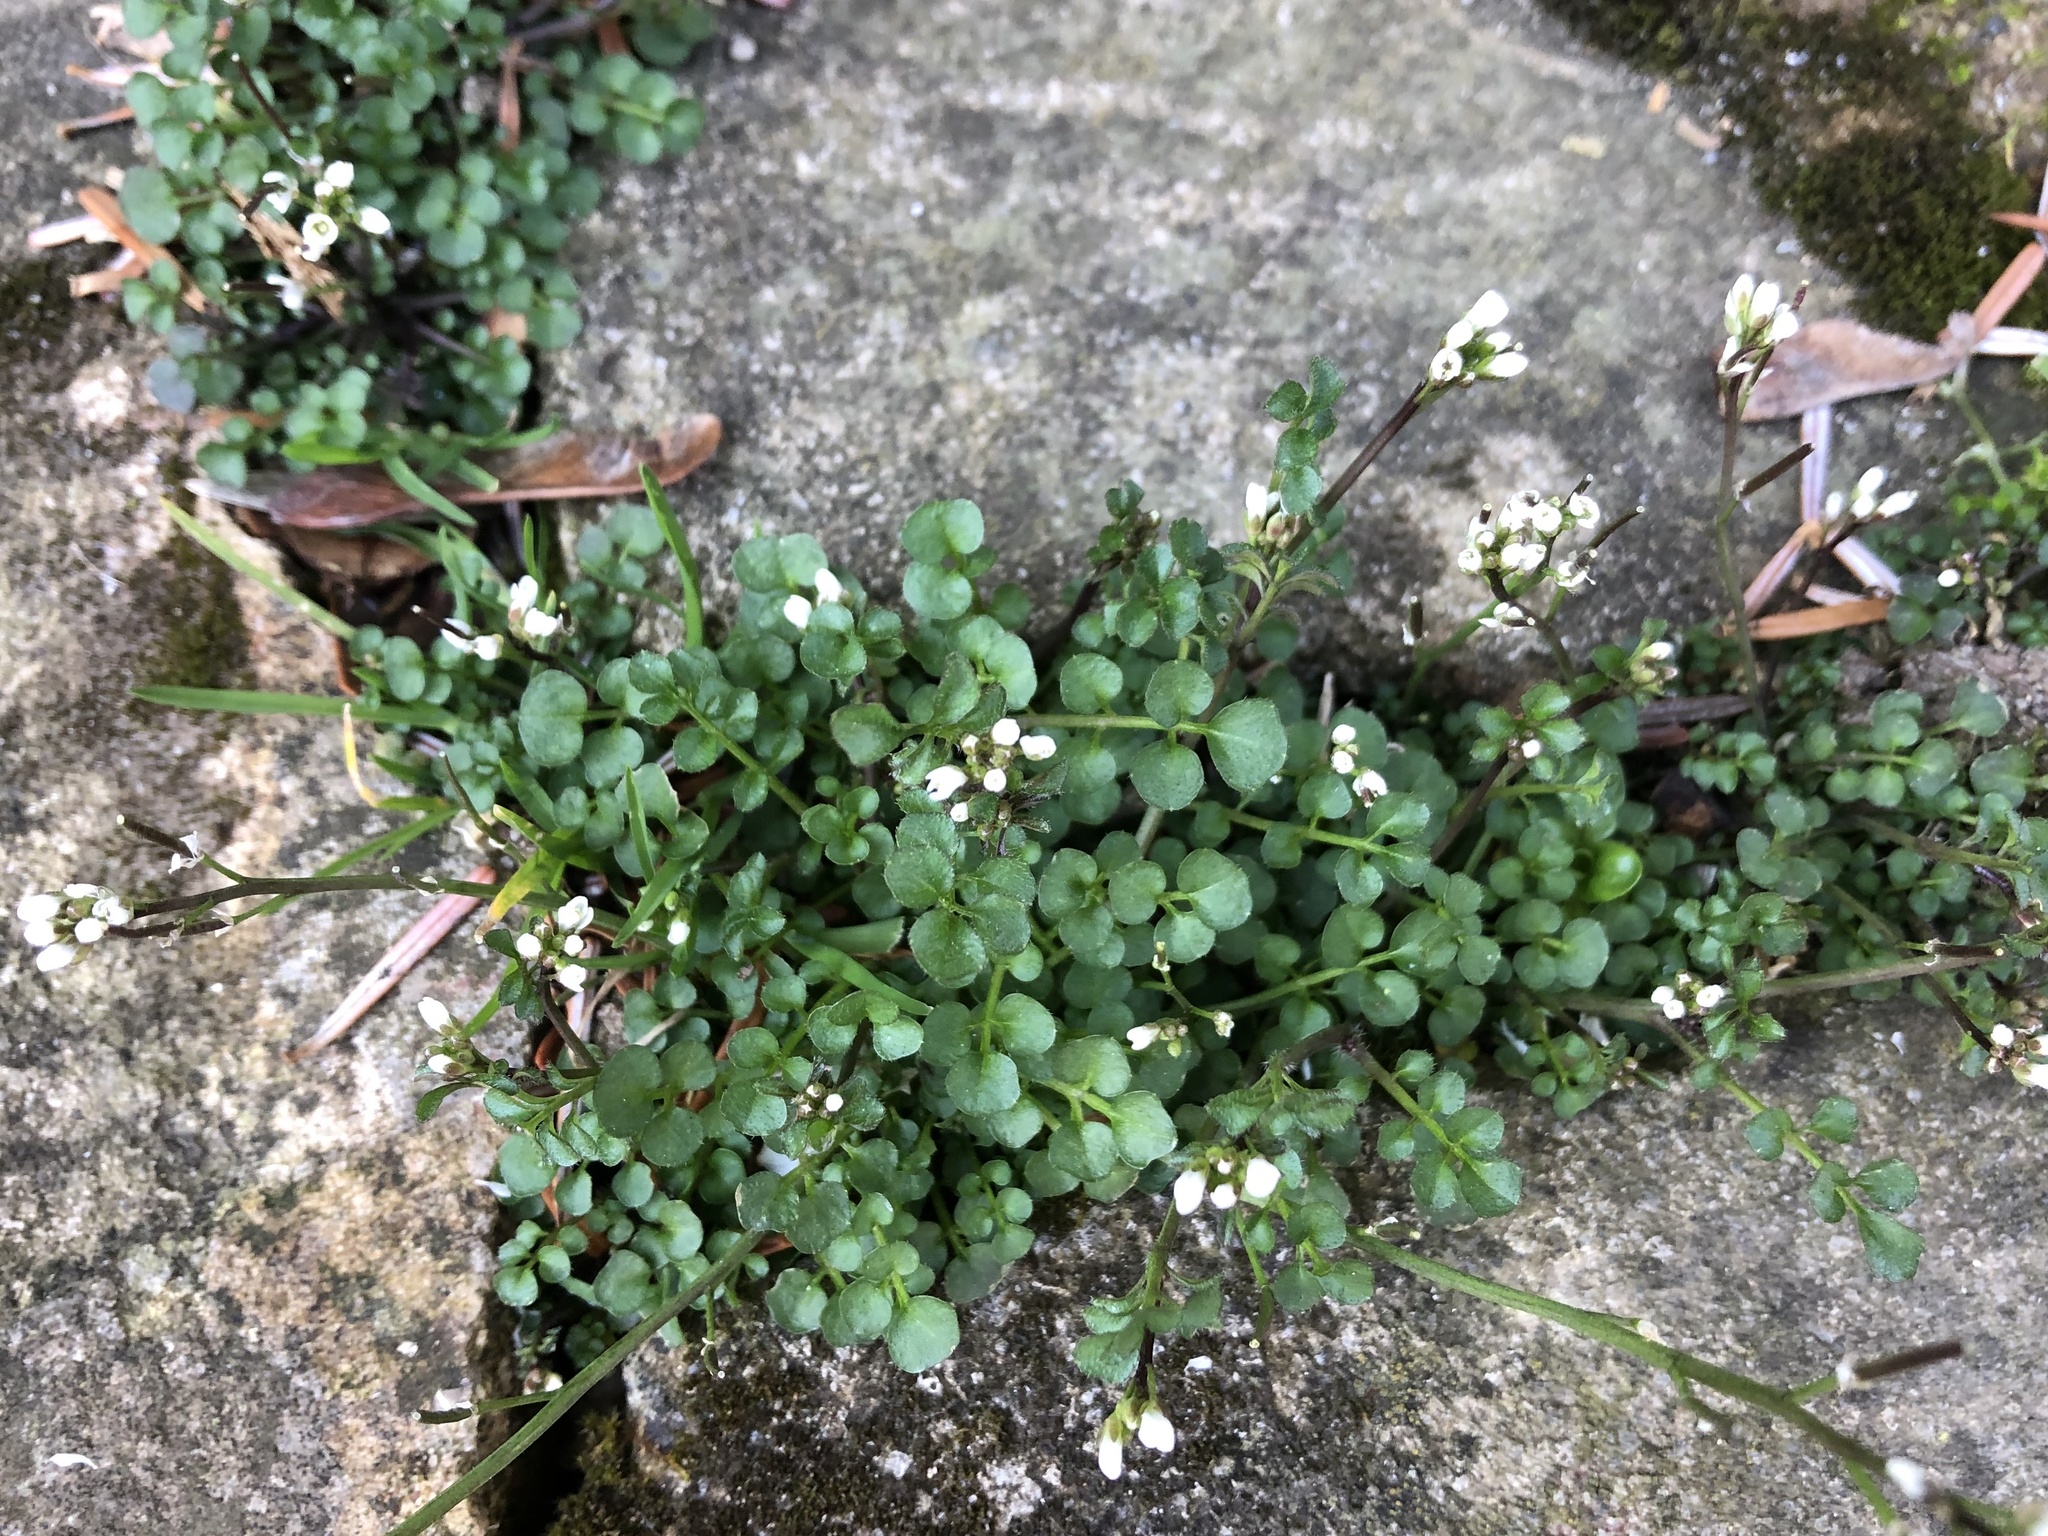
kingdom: Plantae
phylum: Tracheophyta
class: Magnoliopsida
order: Brassicales
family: Brassicaceae
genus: Cardamine
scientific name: Cardamine hirsuta
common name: Hairy bittercress
